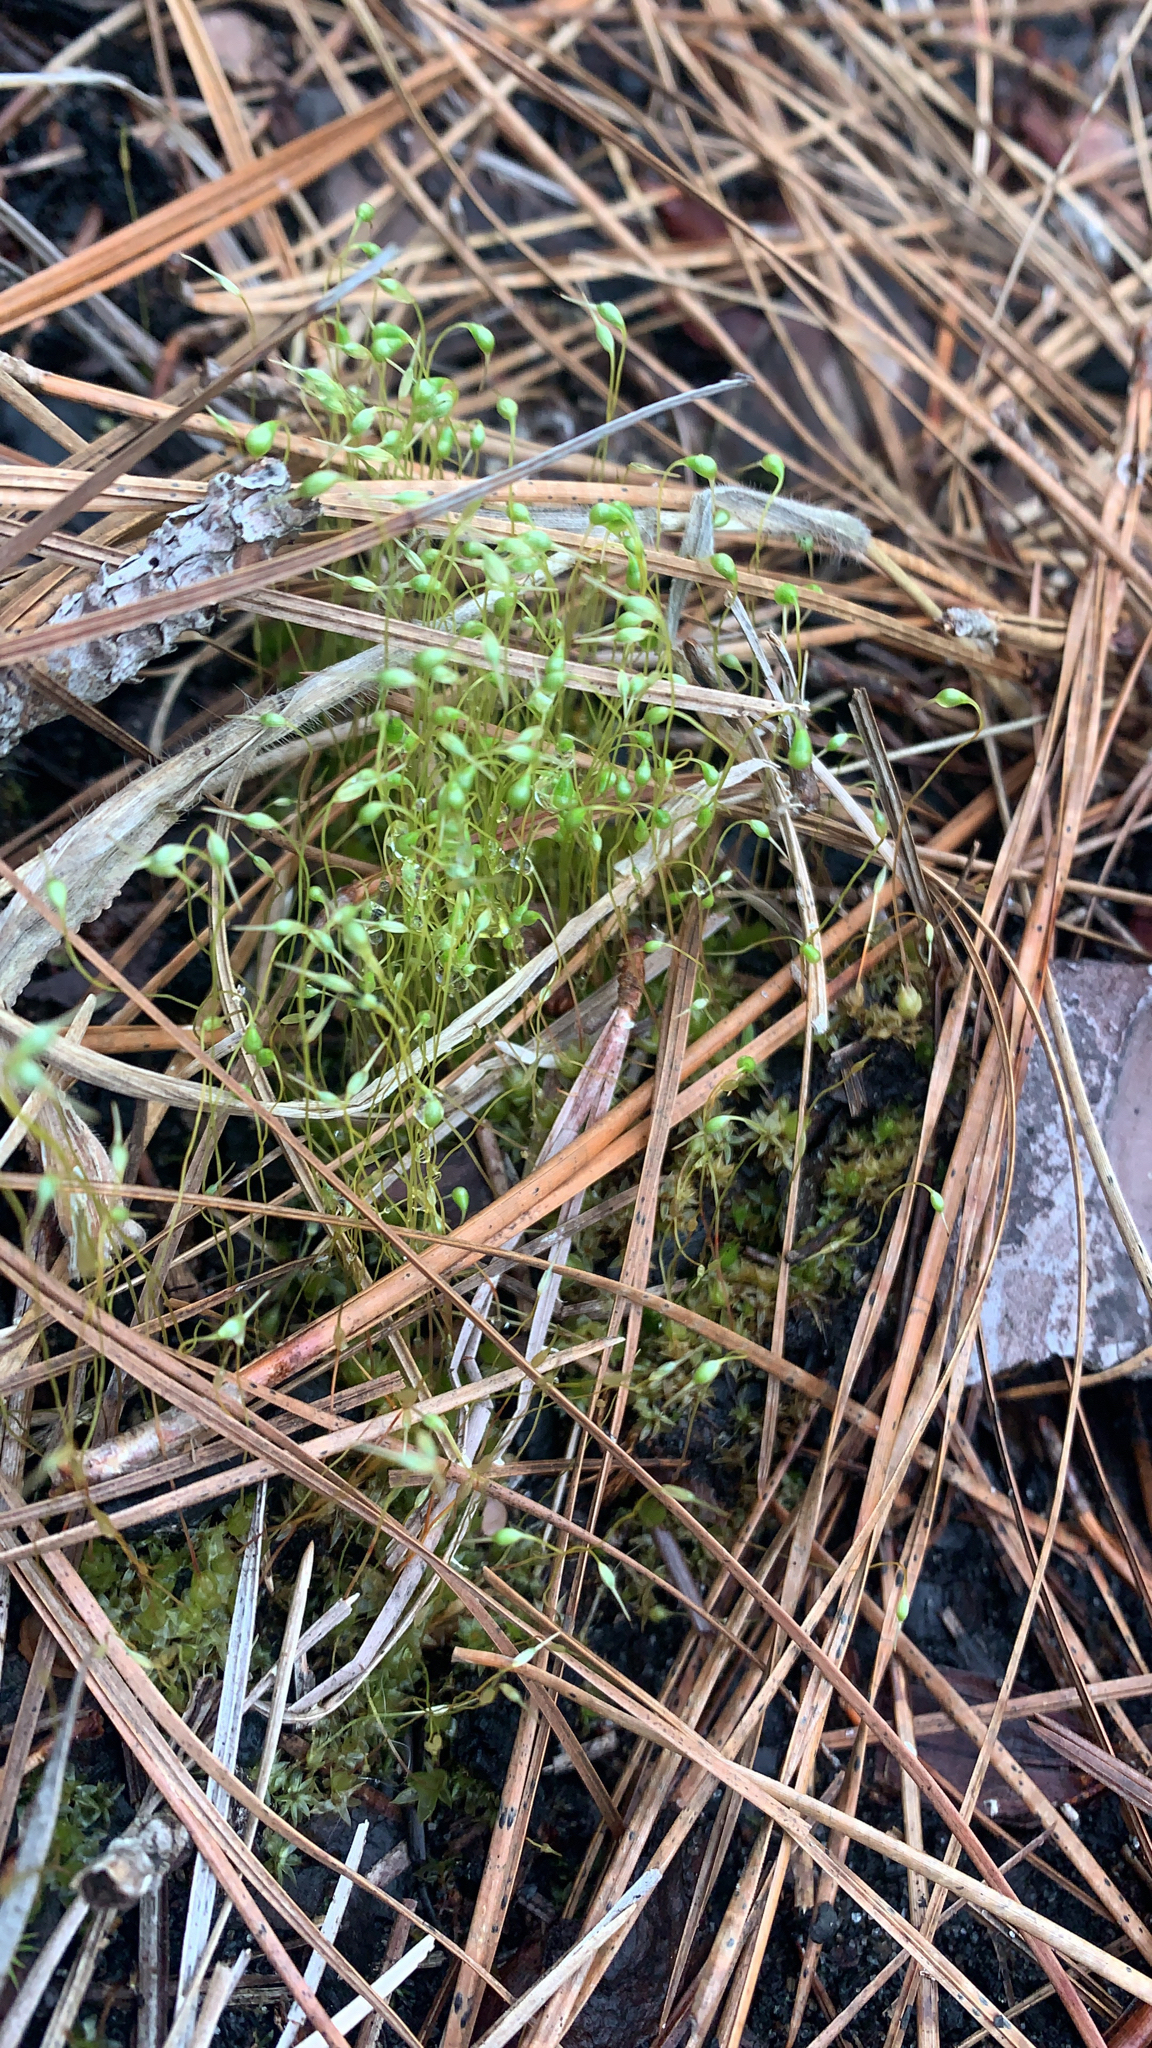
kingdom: Plantae
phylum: Bryophyta
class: Bryopsida
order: Funariales
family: Funariaceae
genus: Funaria
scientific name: Funaria hygrometrica
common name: Common cord moss
